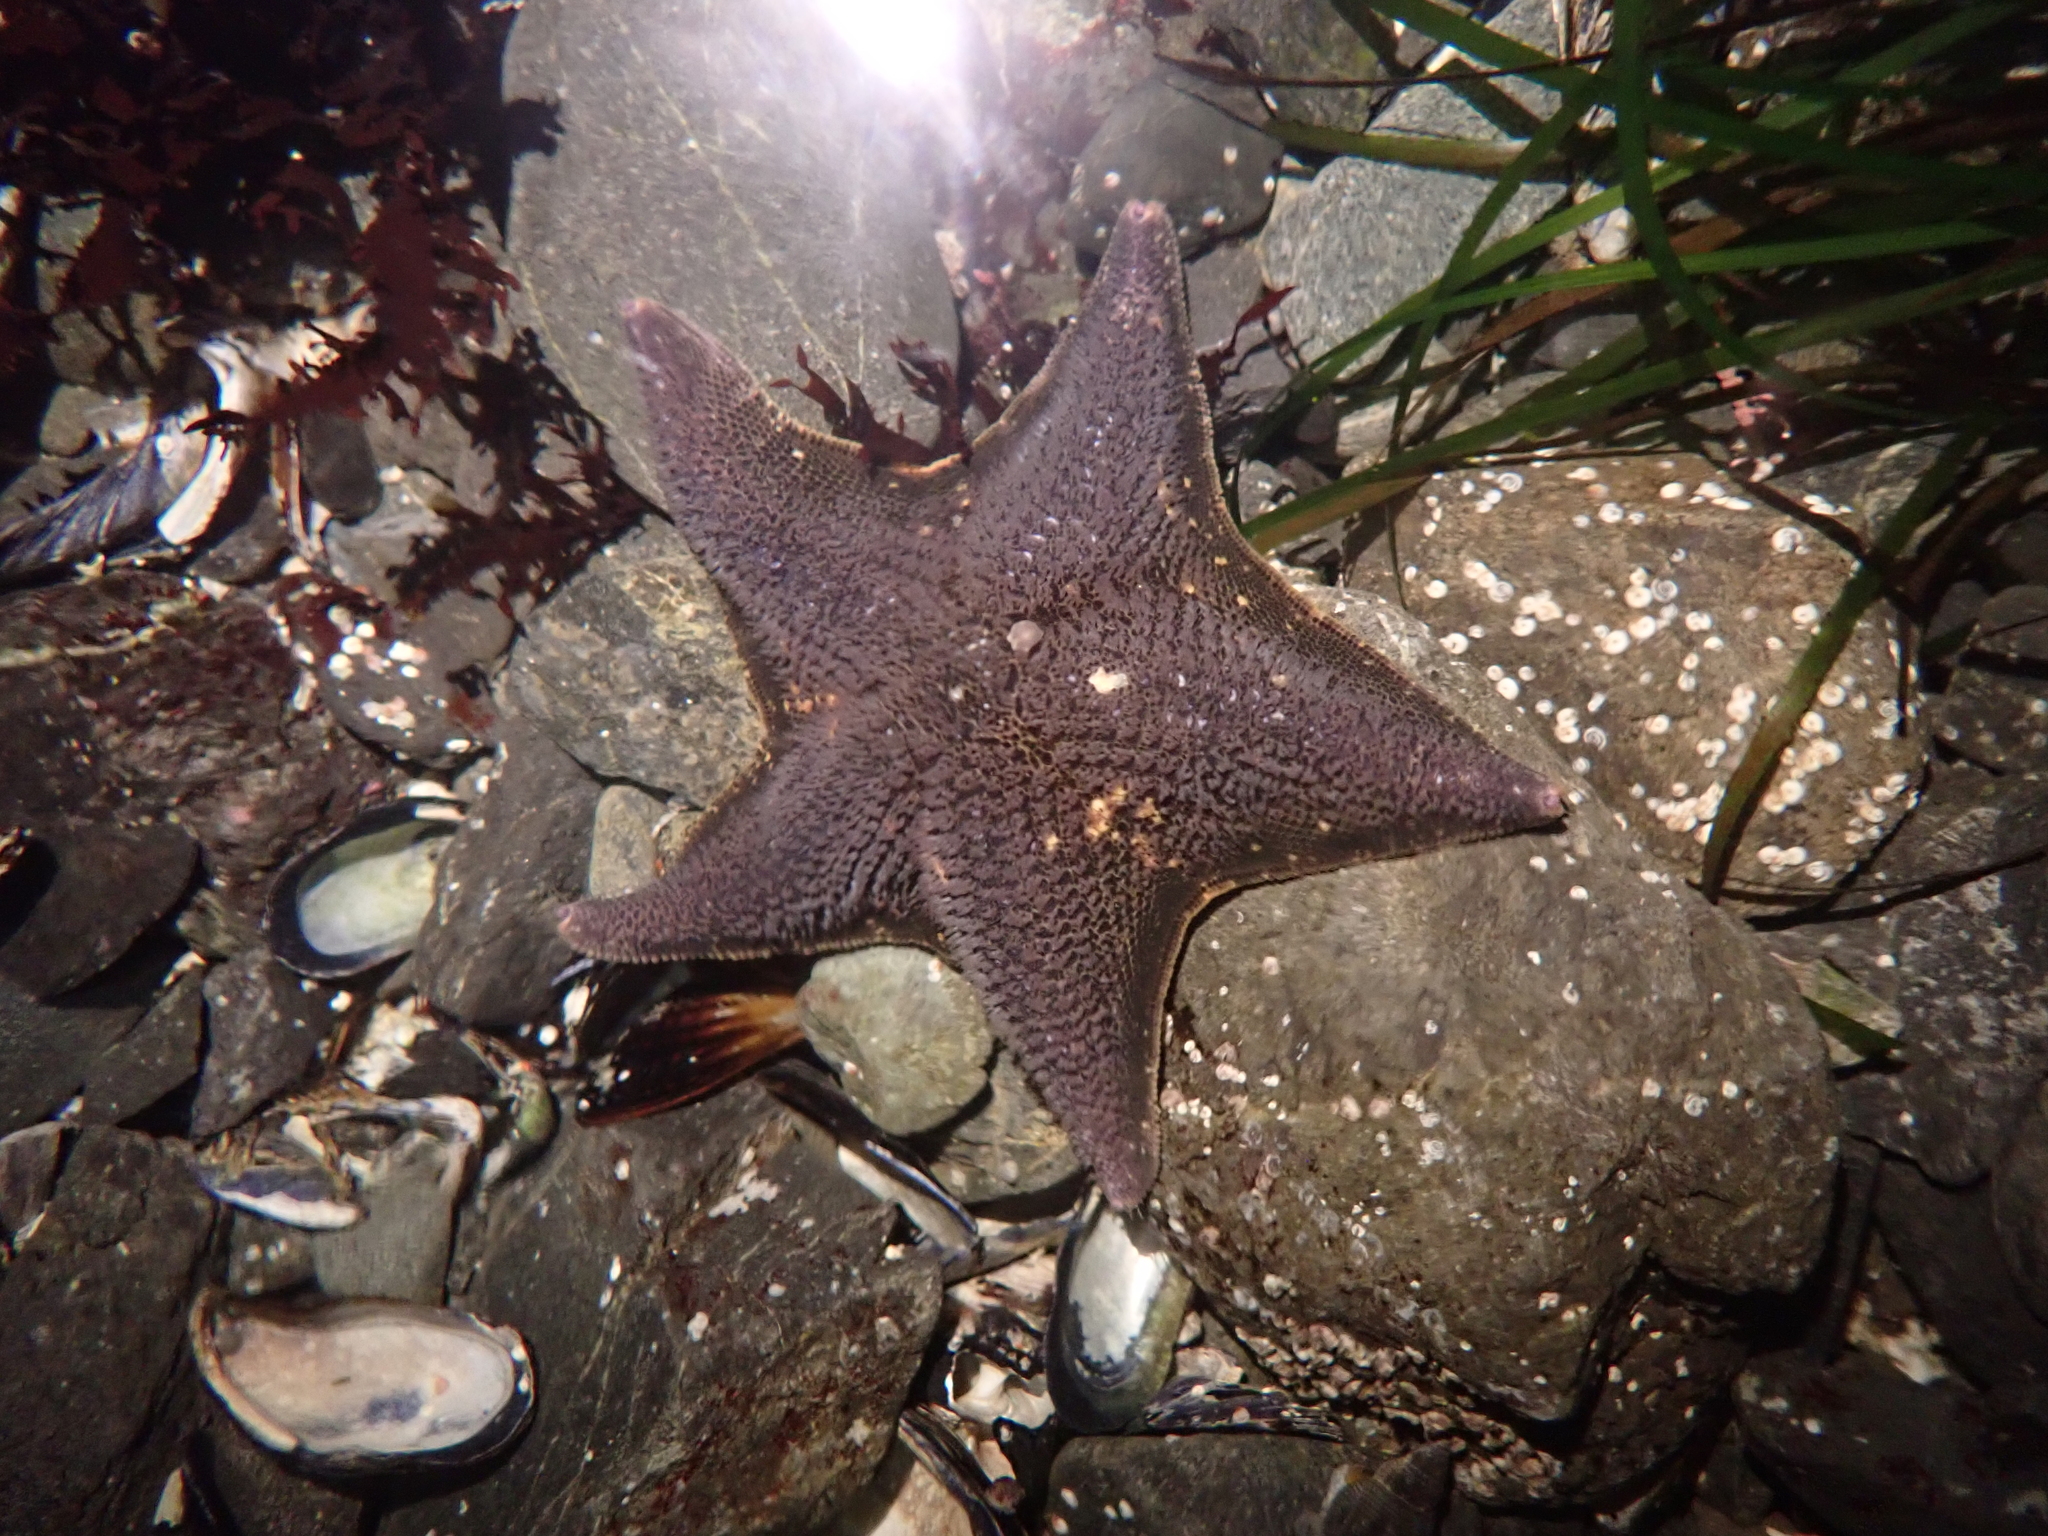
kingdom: Animalia
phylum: Echinodermata
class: Asteroidea
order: Valvatida
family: Asterinidae
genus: Patiria
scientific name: Patiria miniata
